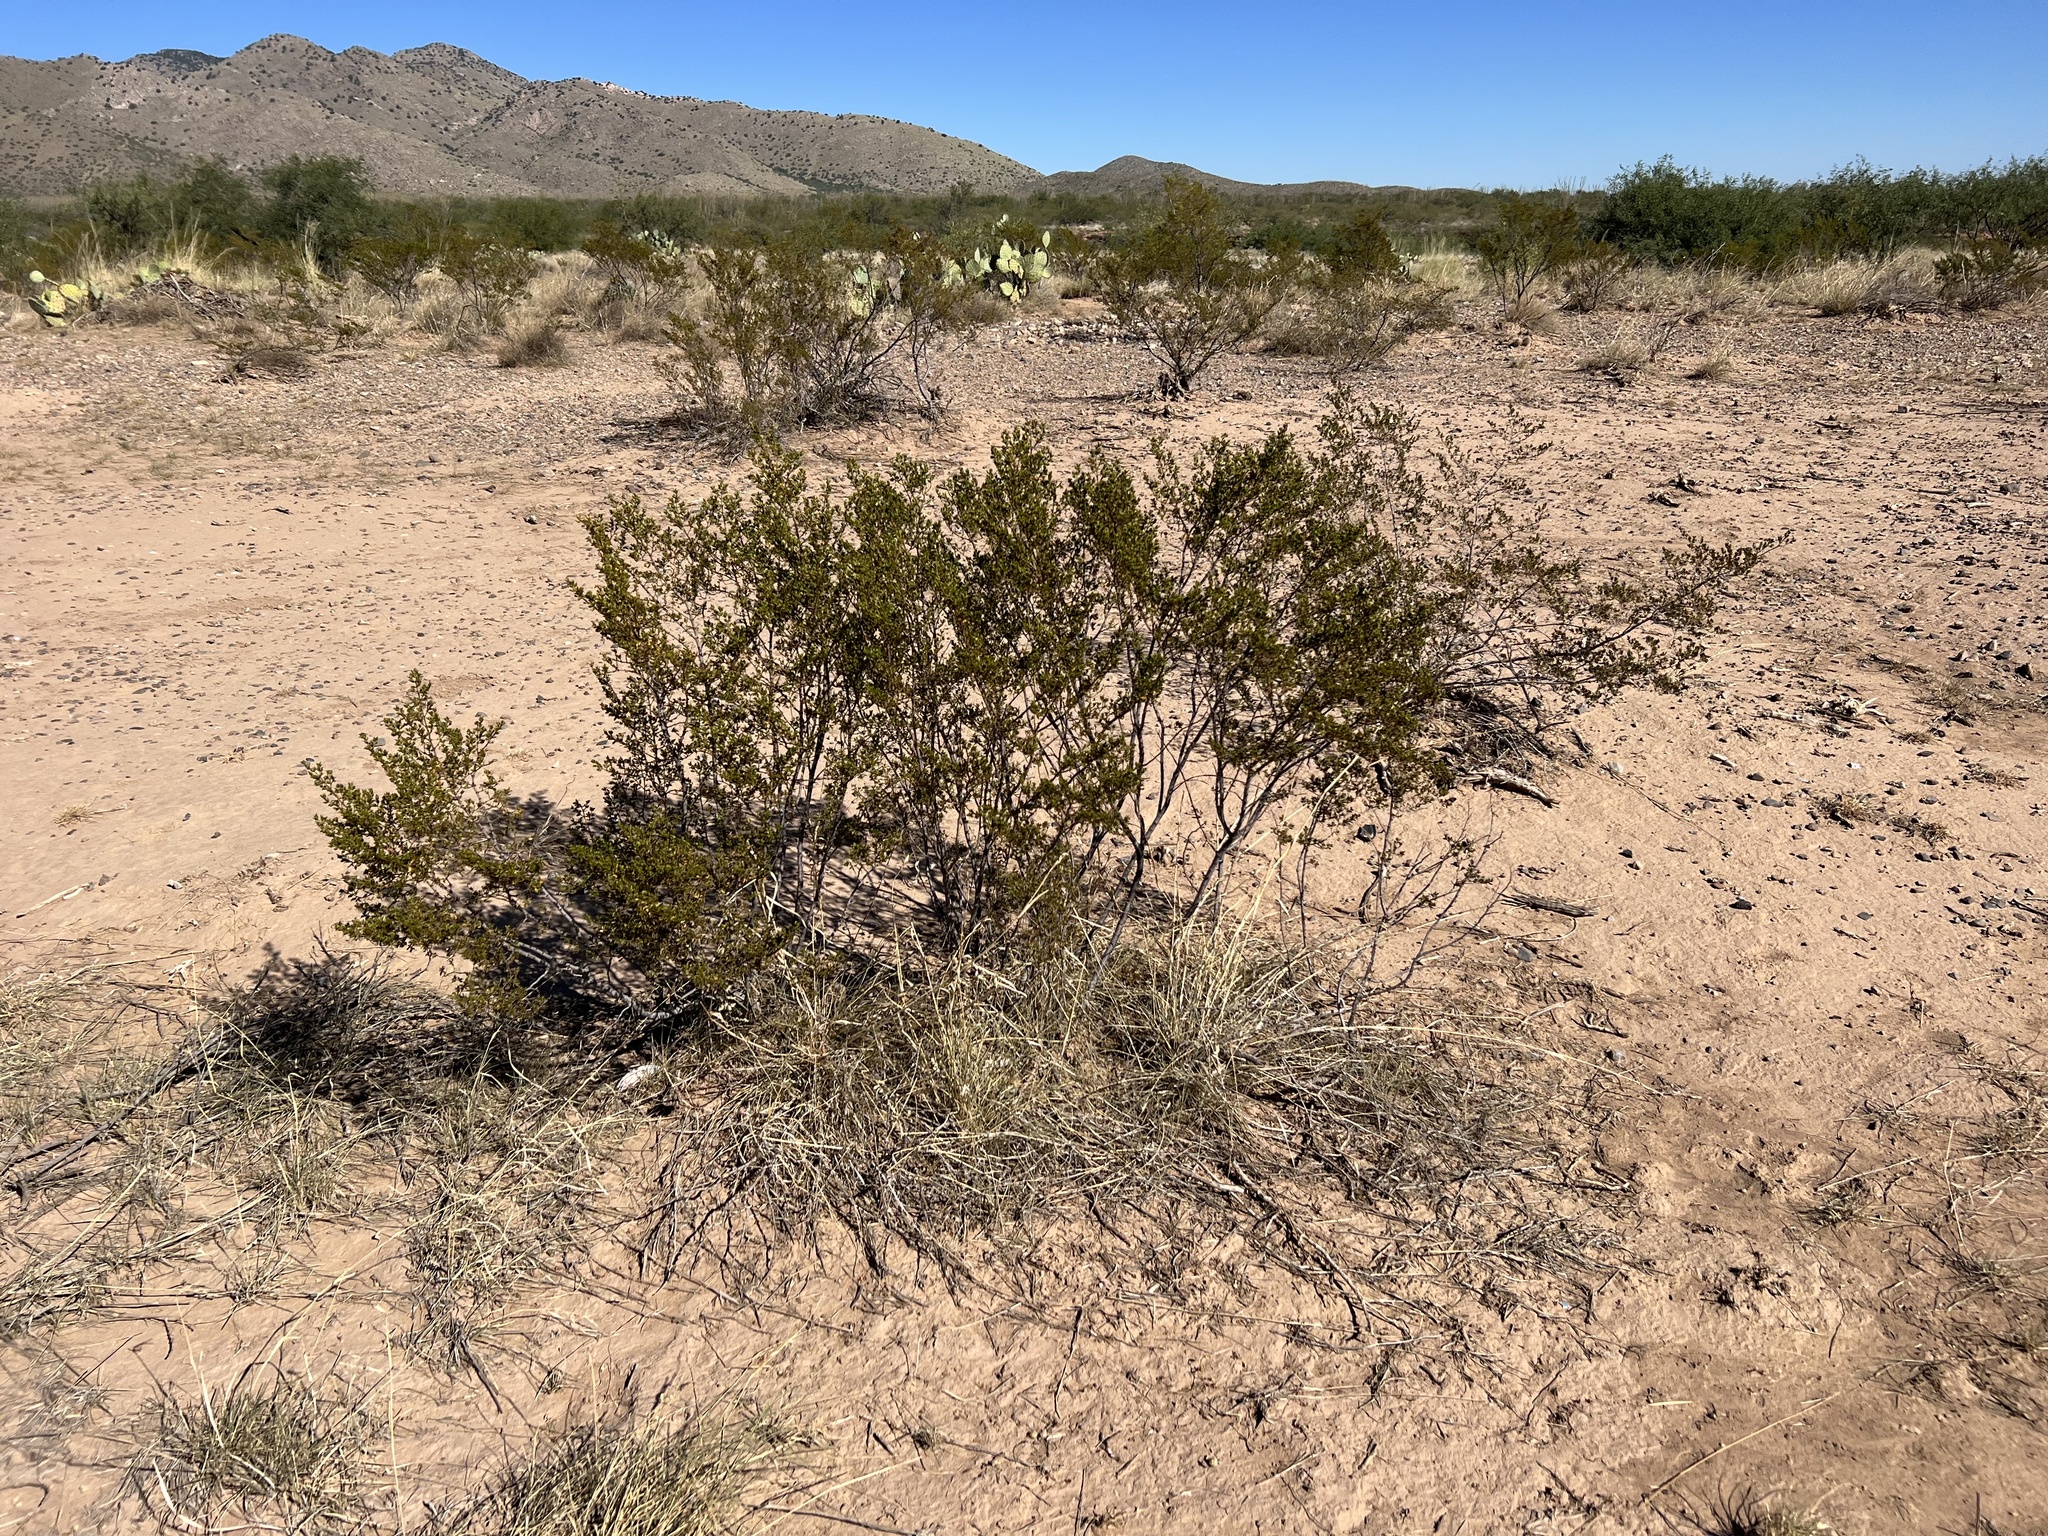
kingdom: Plantae
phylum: Tracheophyta
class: Magnoliopsida
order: Zygophyllales
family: Zygophyllaceae
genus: Larrea
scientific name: Larrea tridentata
